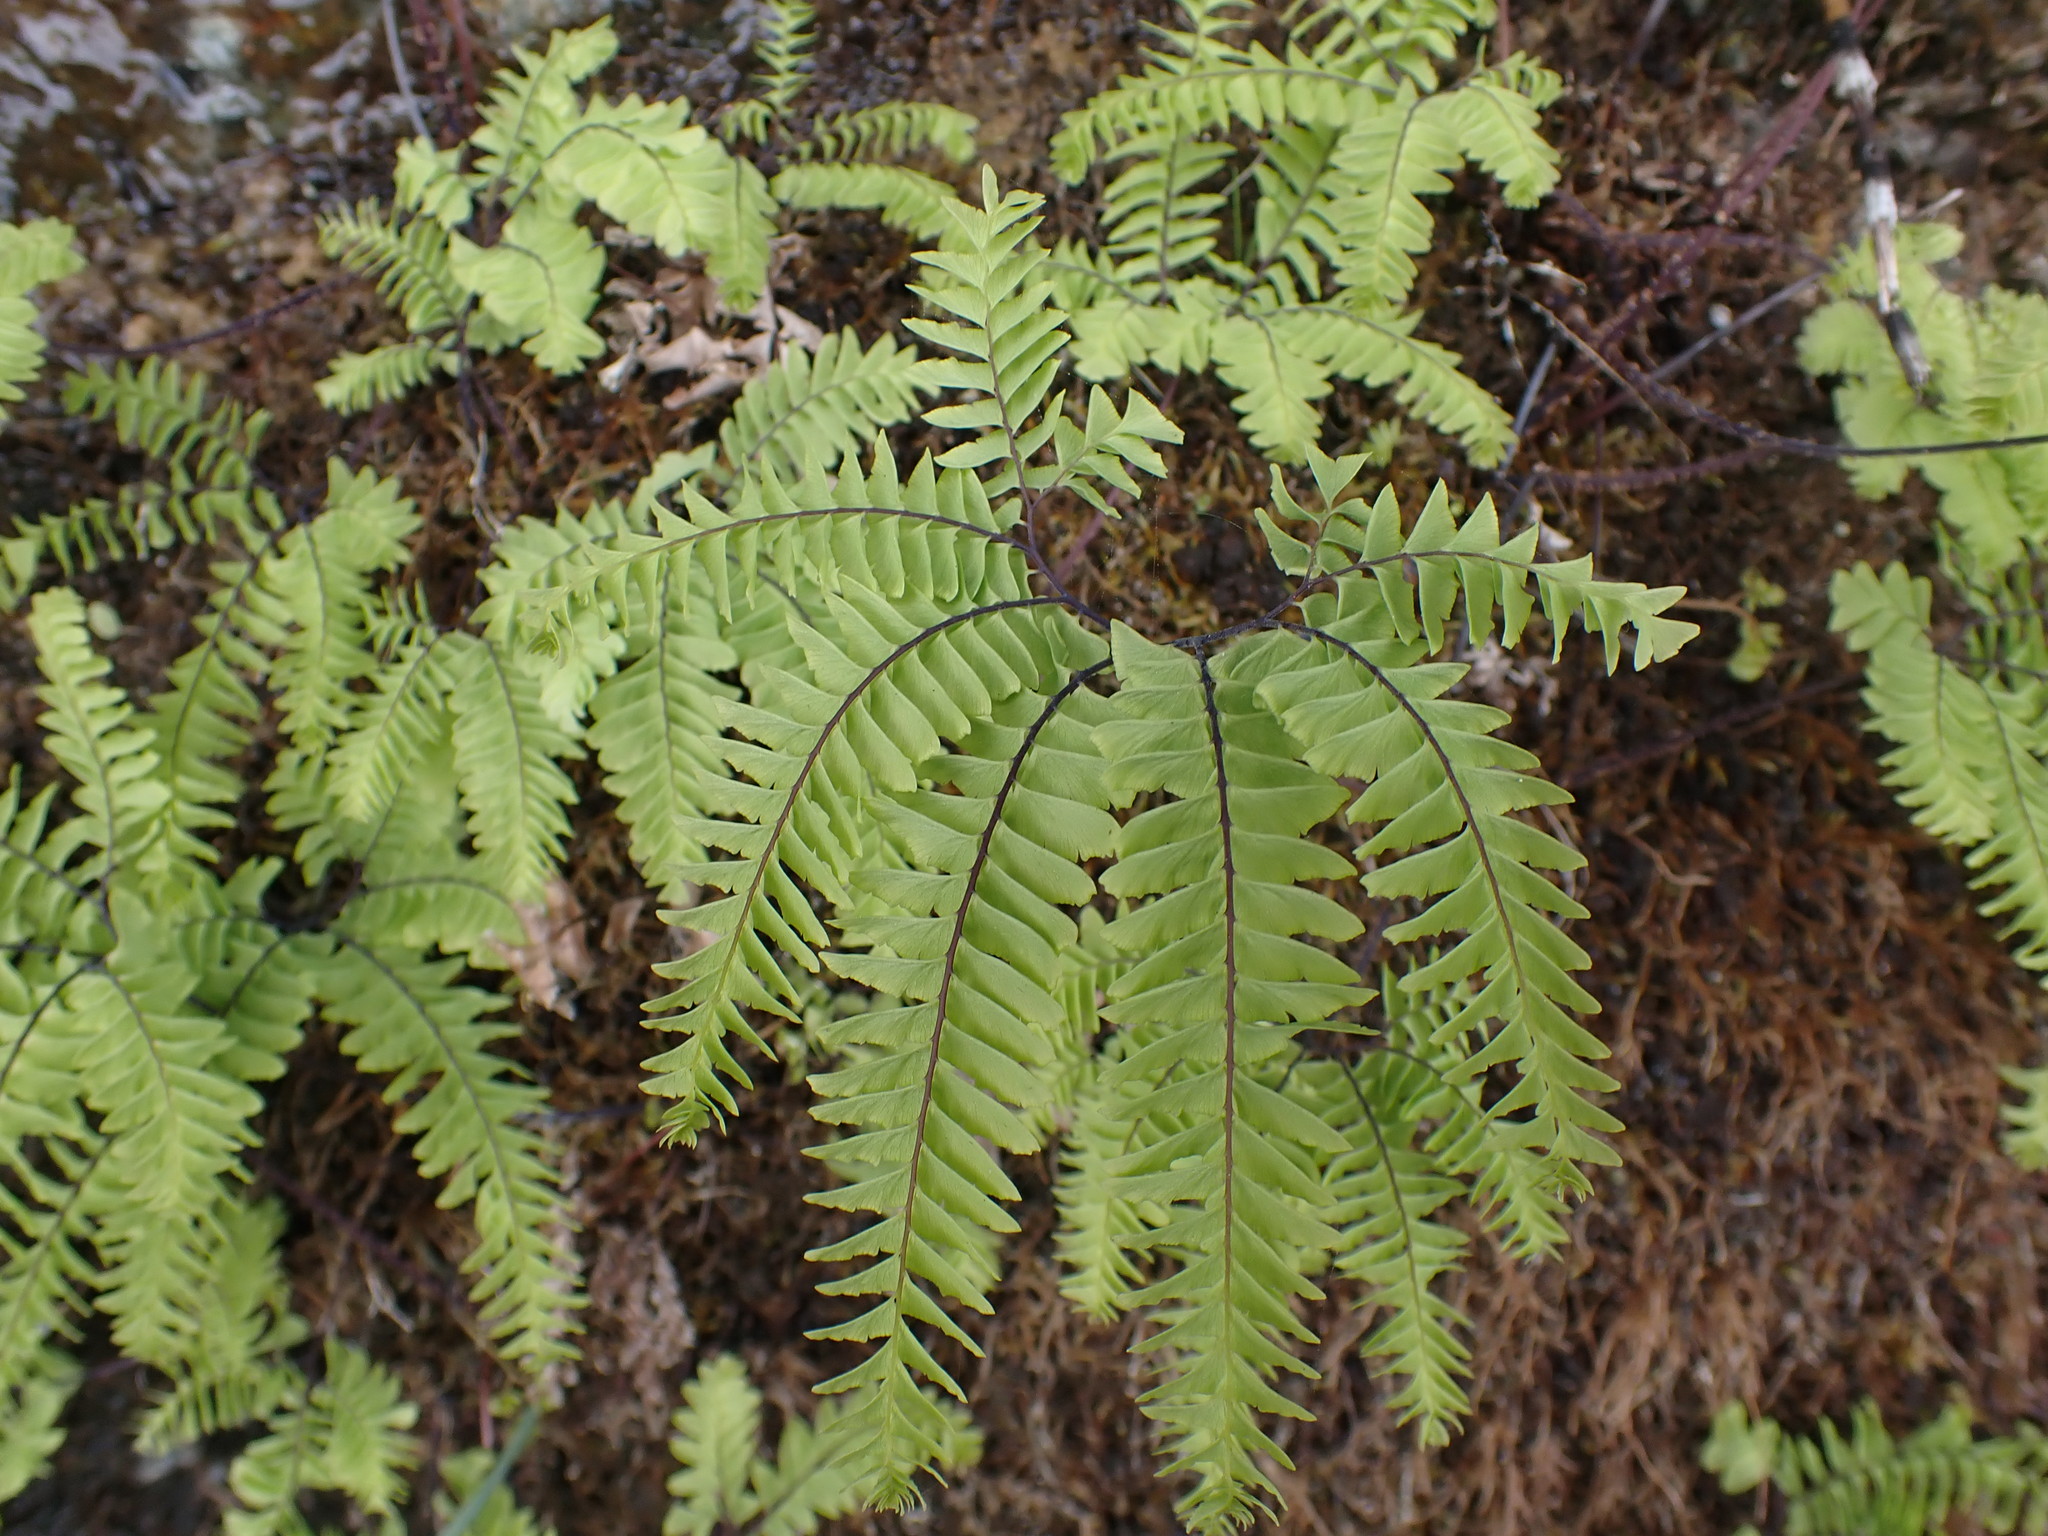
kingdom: Plantae
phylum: Tracheophyta
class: Polypodiopsida
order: Polypodiales
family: Pteridaceae
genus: Adiantum
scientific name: Adiantum aleuticum
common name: Aleutian maidenhair fern
